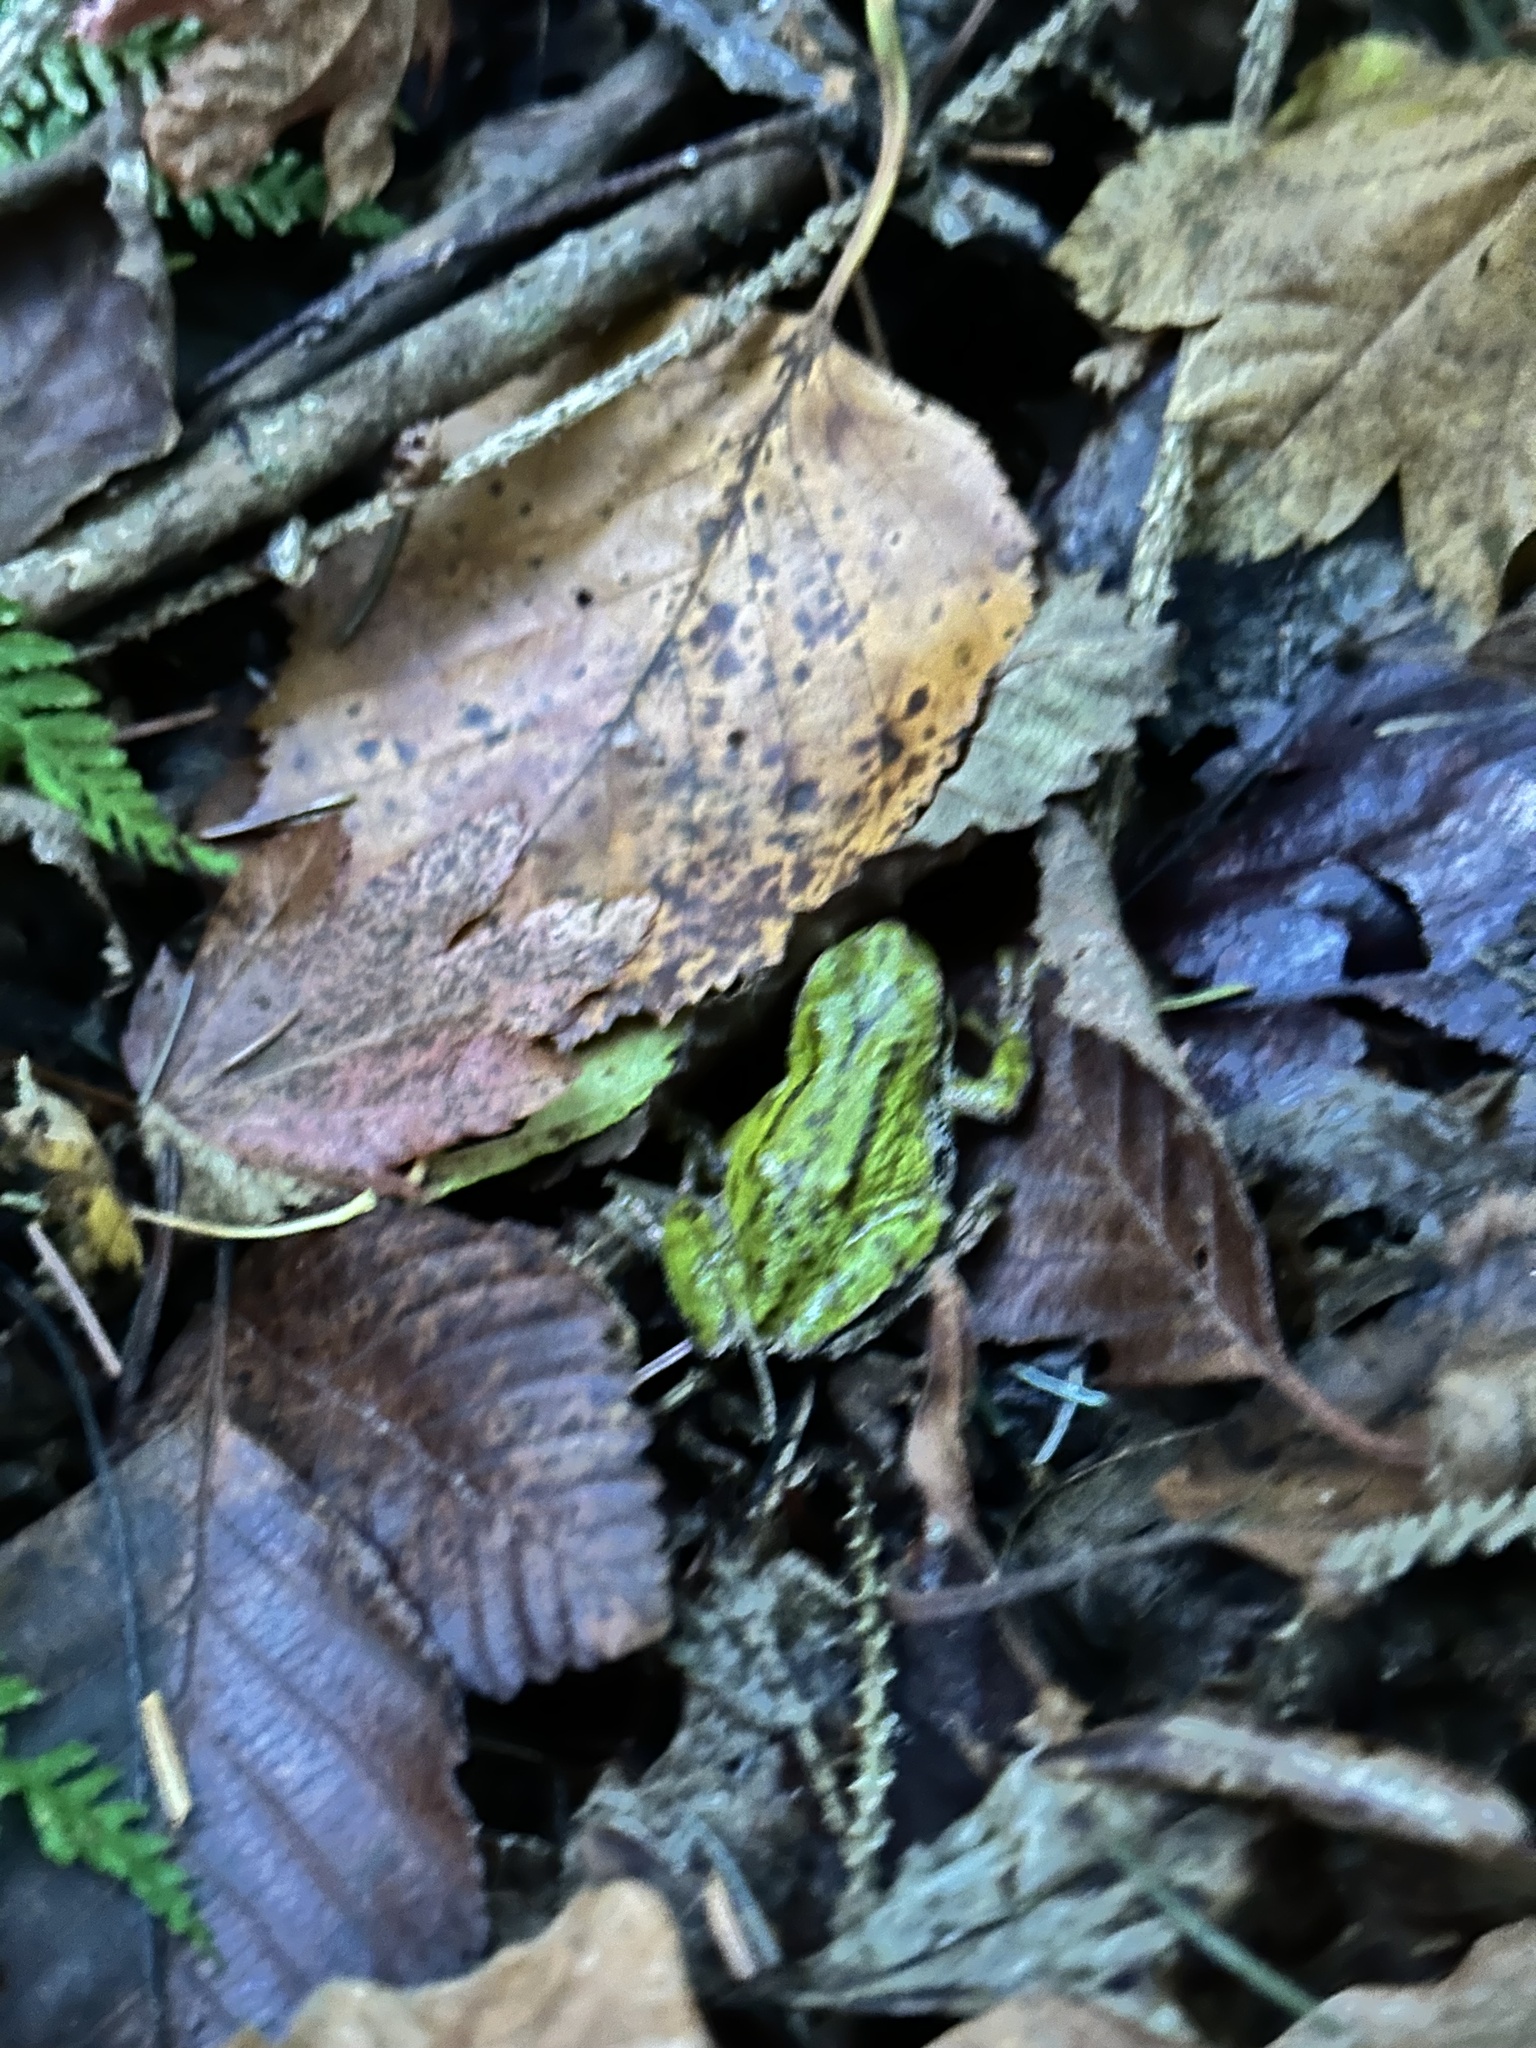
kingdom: Animalia
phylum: Chordata
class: Amphibia
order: Anura
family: Hylidae
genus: Pseudacris
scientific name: Pseudacris regilla
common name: Pacific chorus frog
